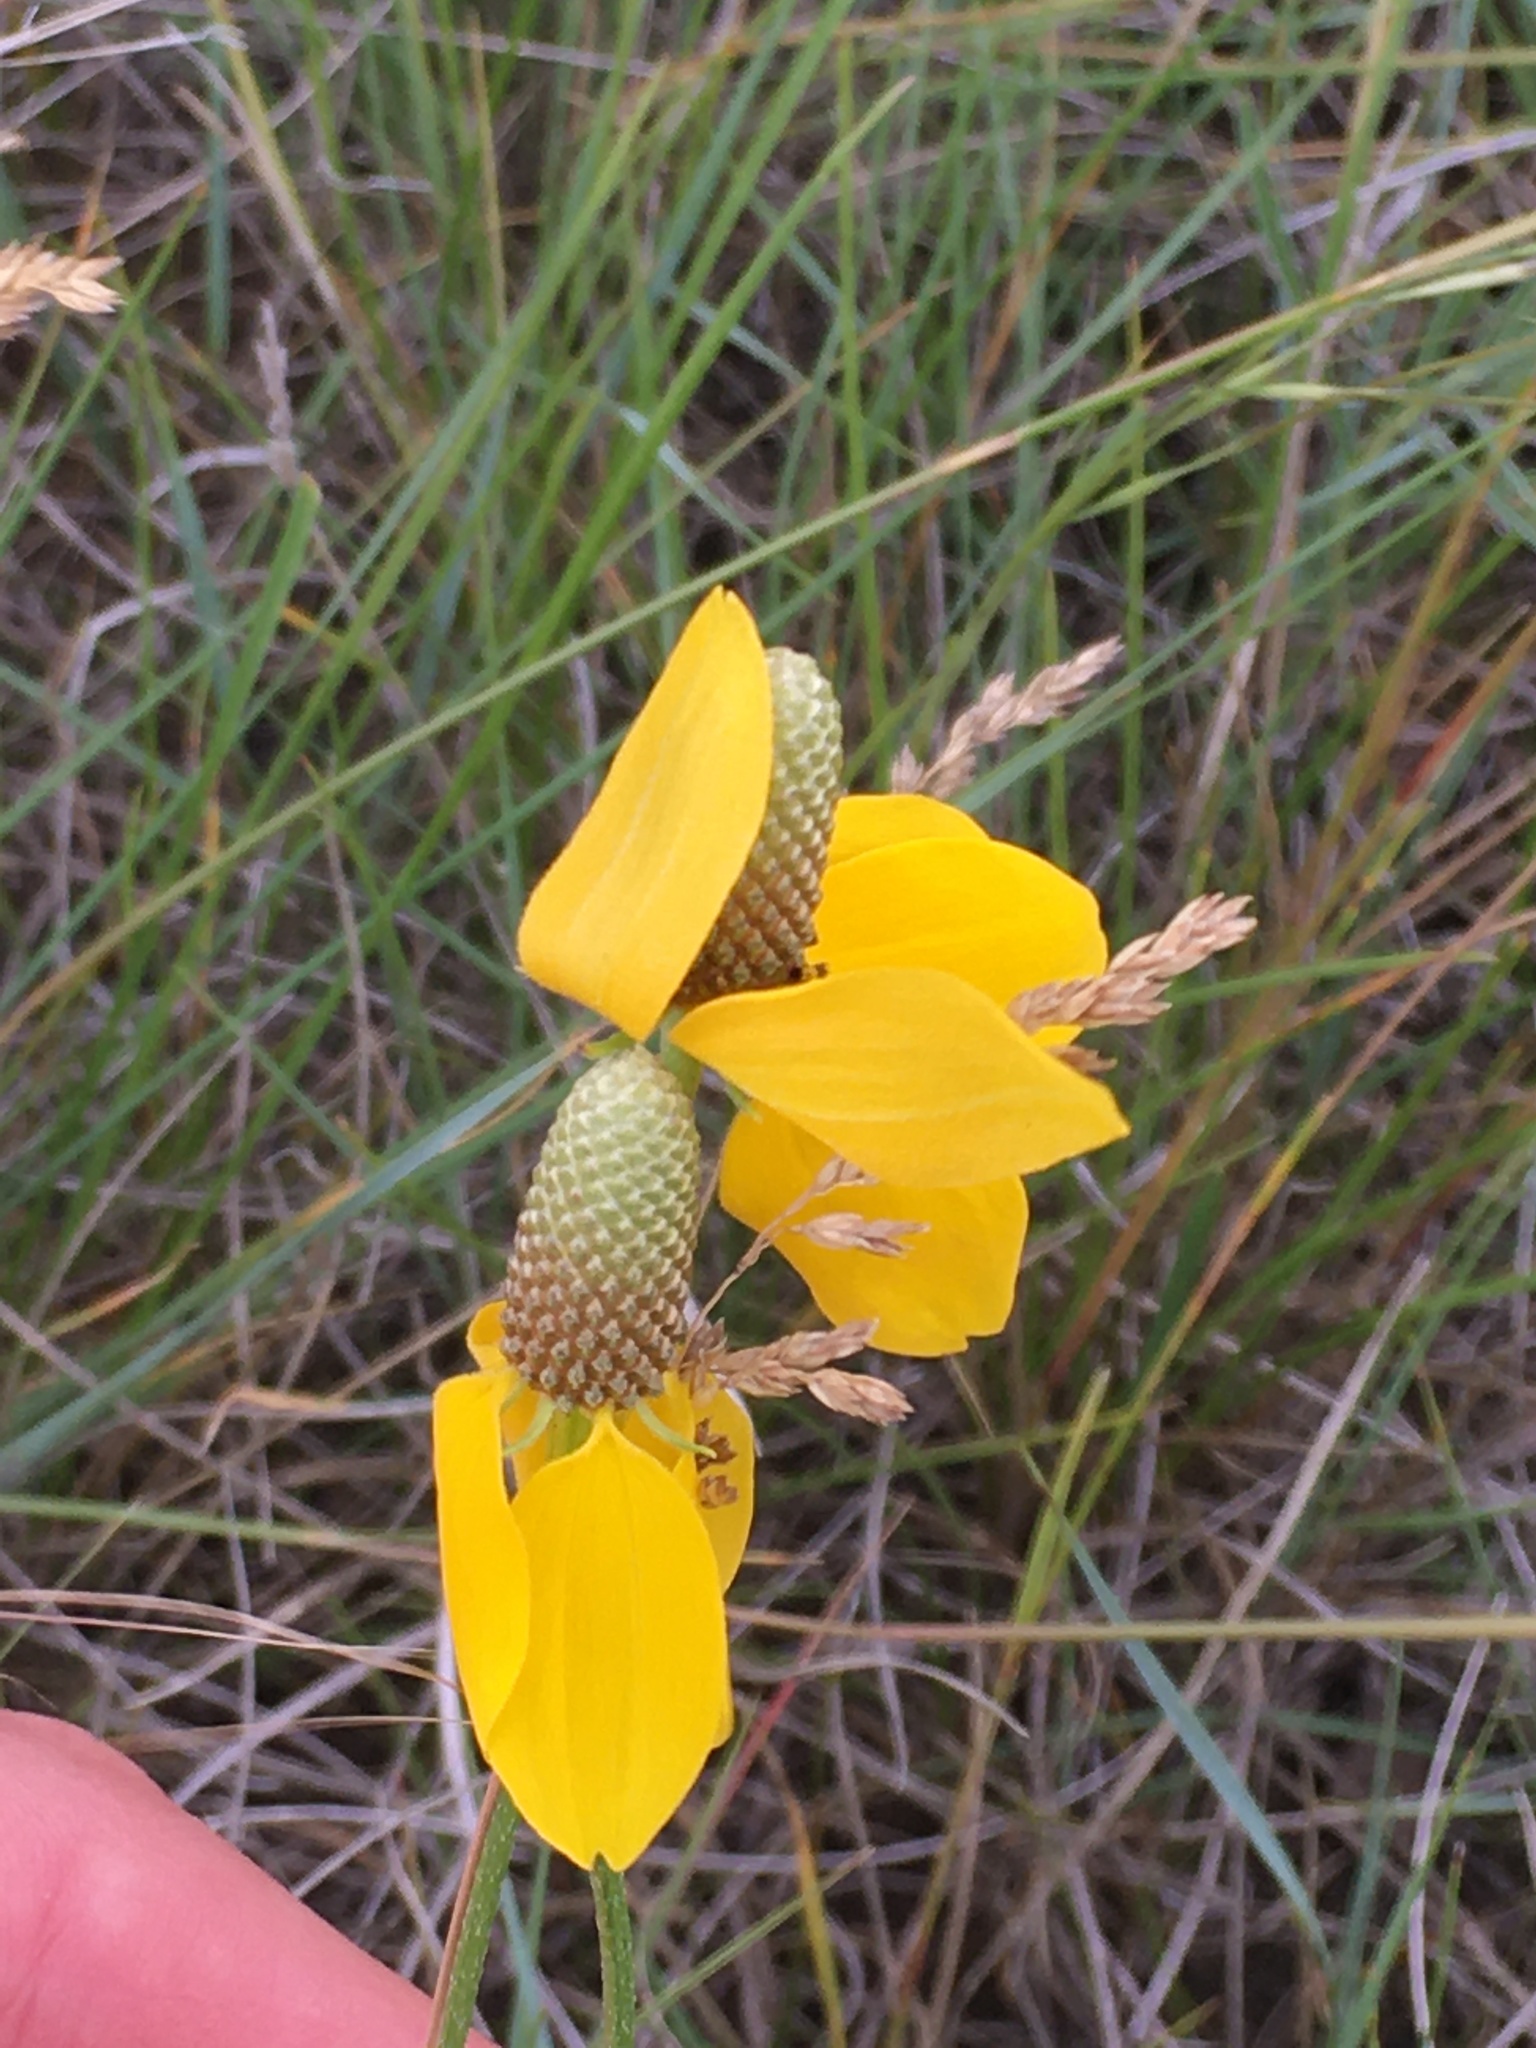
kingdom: Plantae
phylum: Tracheophyta
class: Magnoliopsida
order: Asterales
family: Asteraceae
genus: Ratibida
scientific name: Ratibida columnifera
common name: Prairie coneflower
